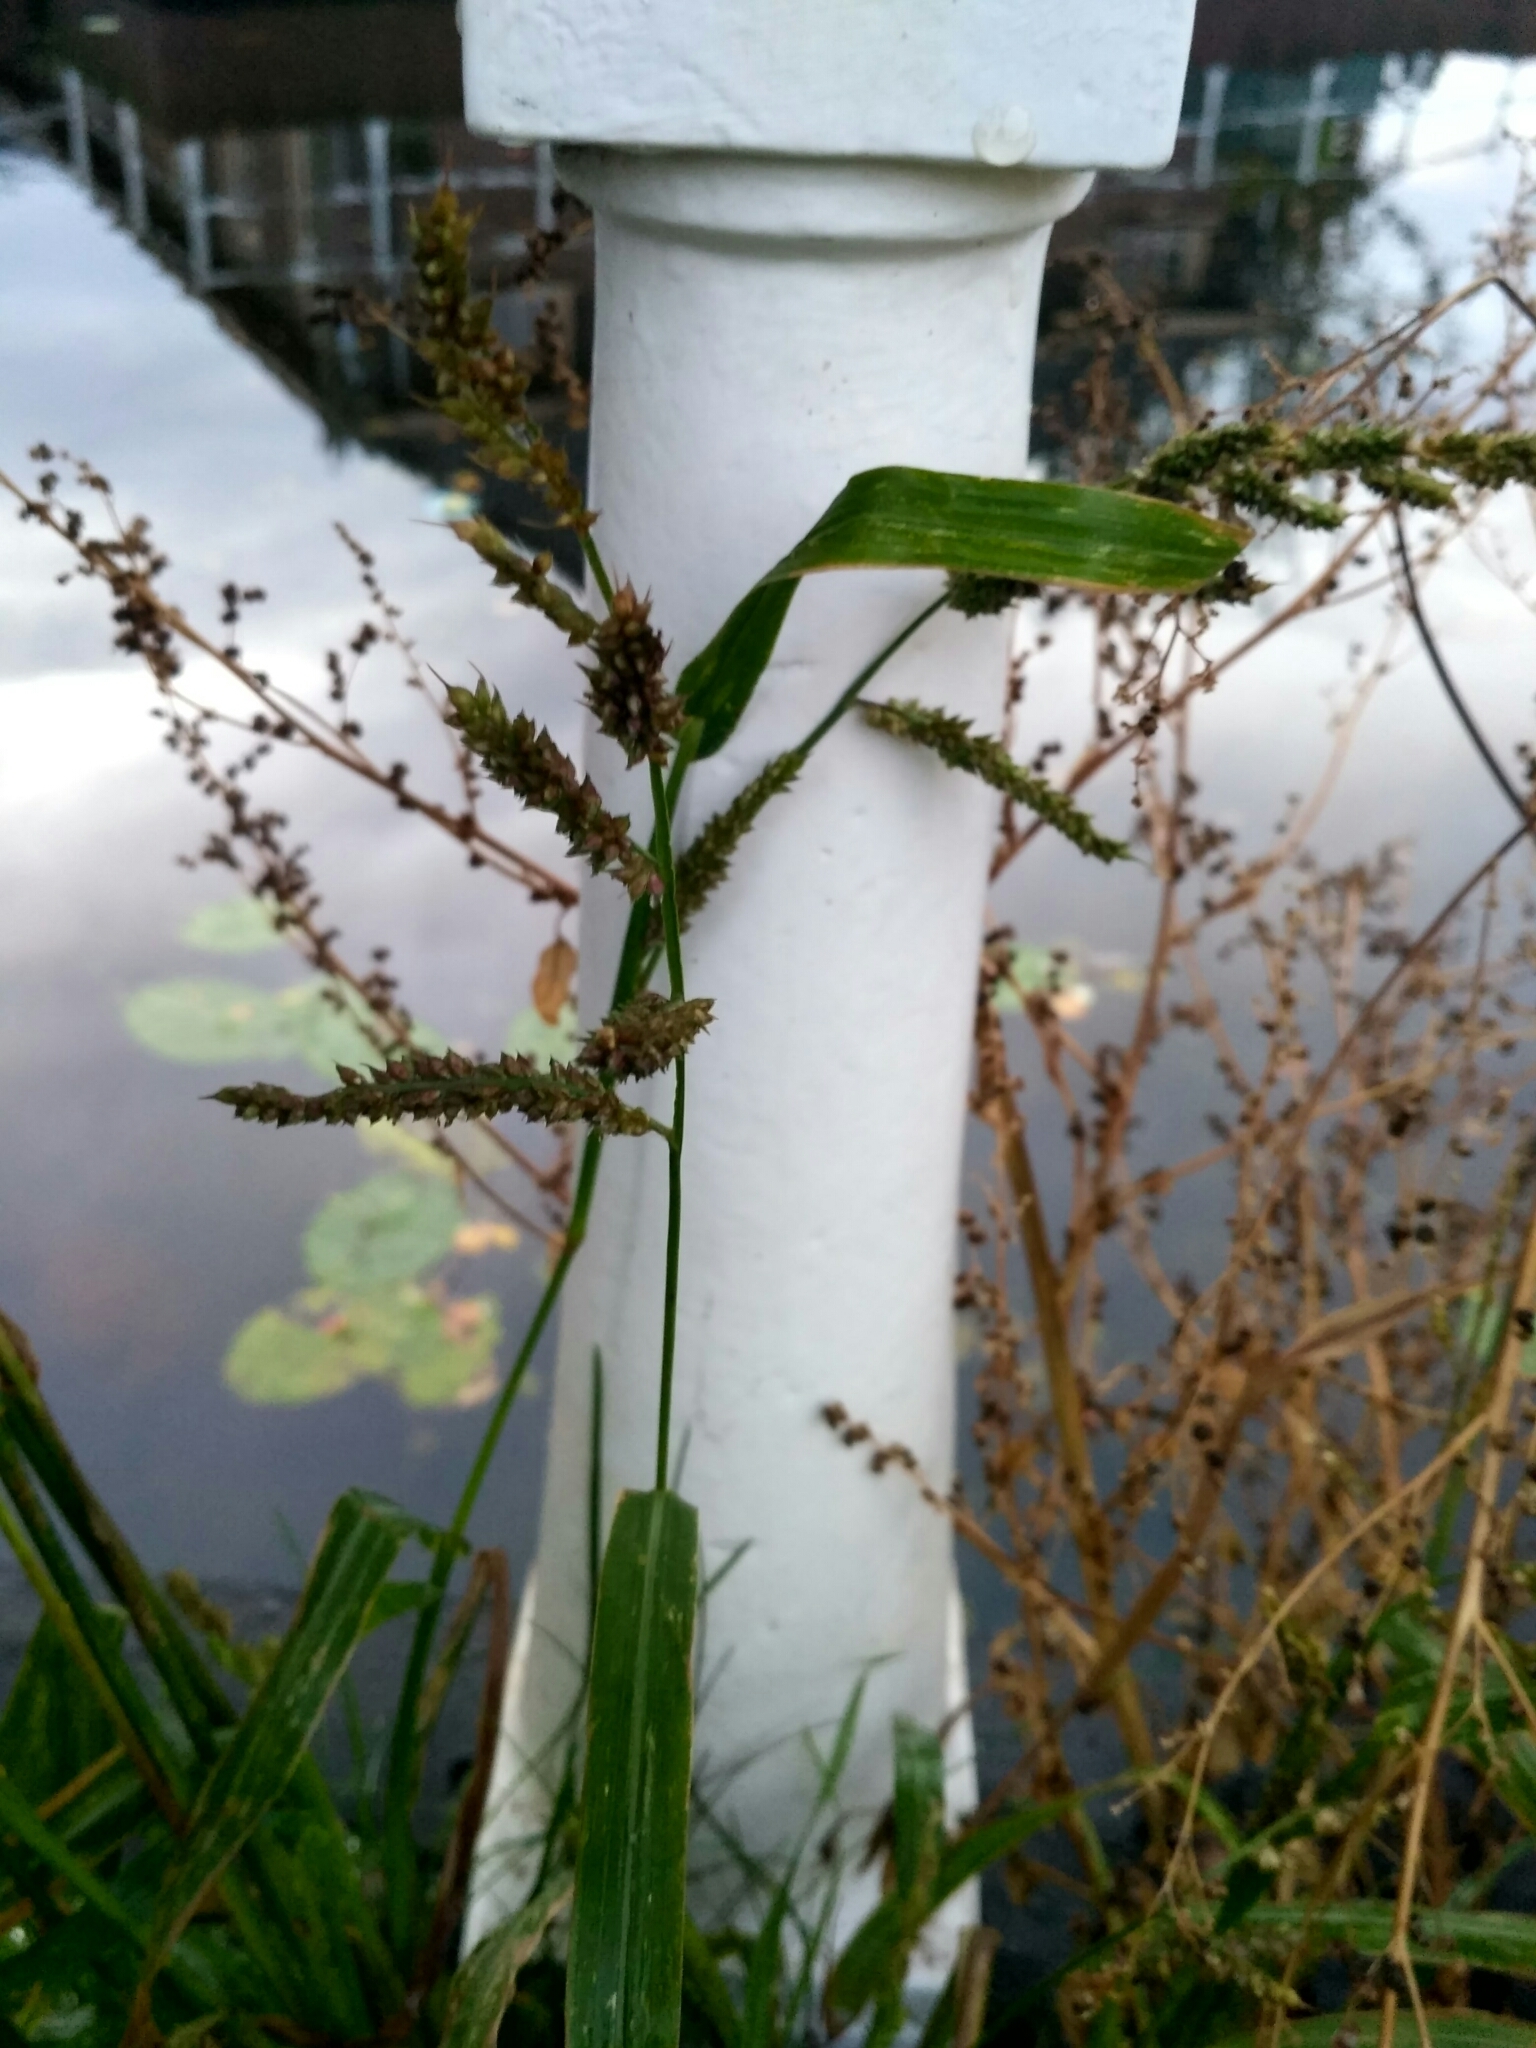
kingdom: Plantae
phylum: Tracheophyta
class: Liliopsida
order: Poales
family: Poaceae
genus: Echinochloa
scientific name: Echinochloa crus-galli
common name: Cockspur
